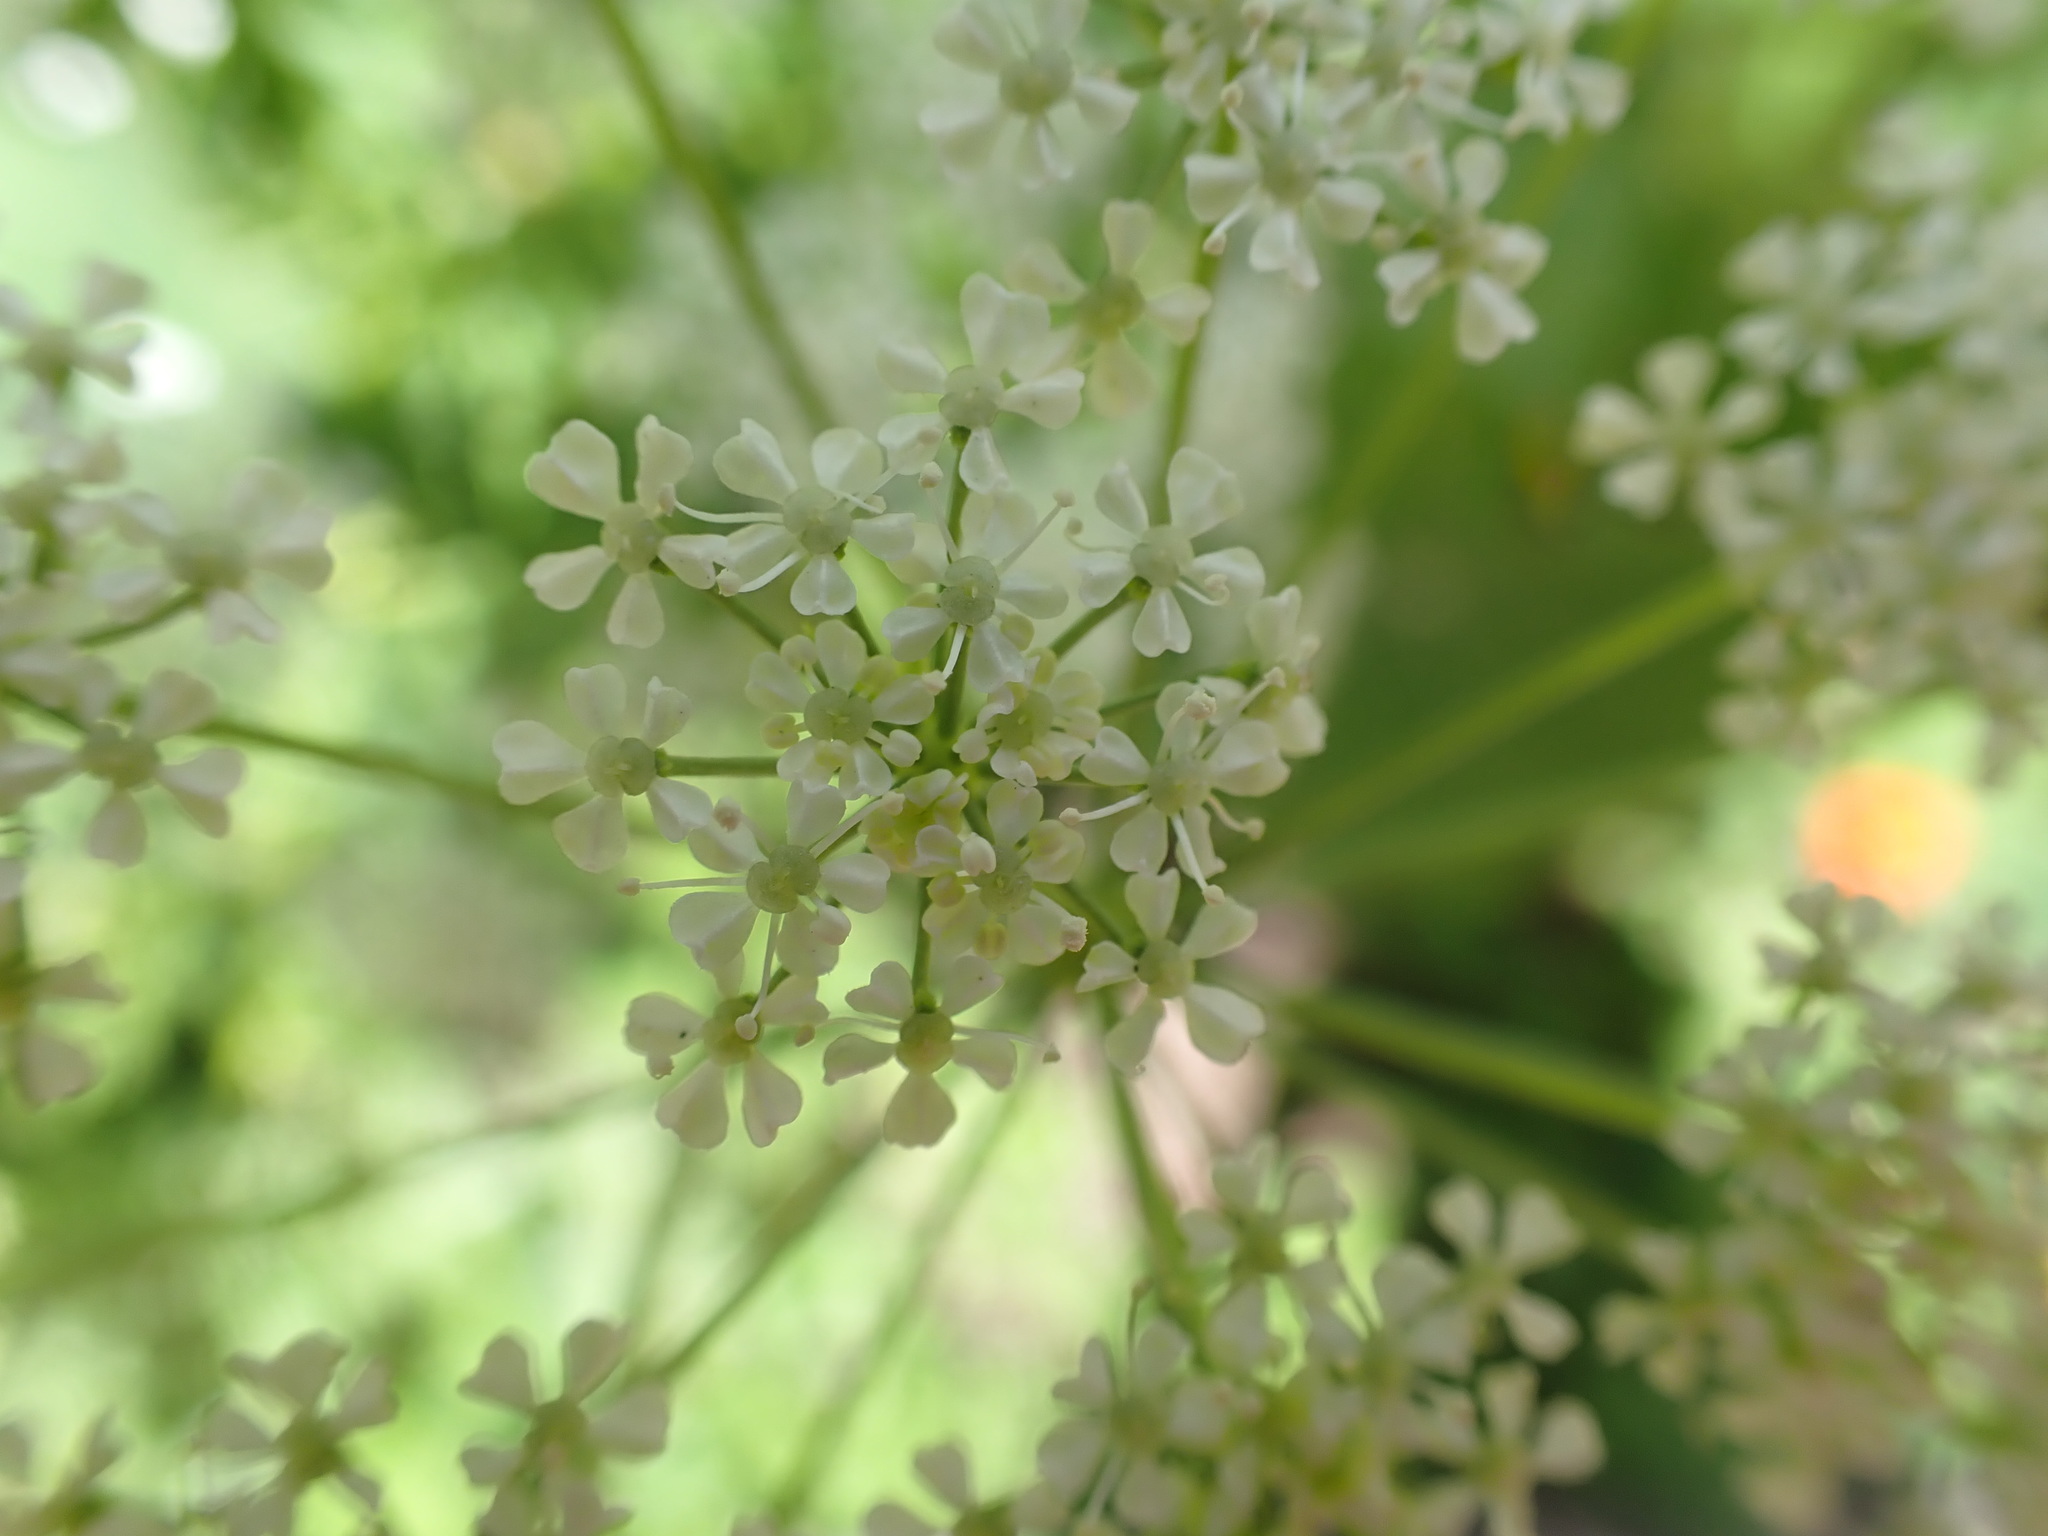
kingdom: Plantae
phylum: Tracheophyta
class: Magnoliopsida
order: Apiales
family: Apiaceae
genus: Conium
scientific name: Conium maculatum
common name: Hemlock
